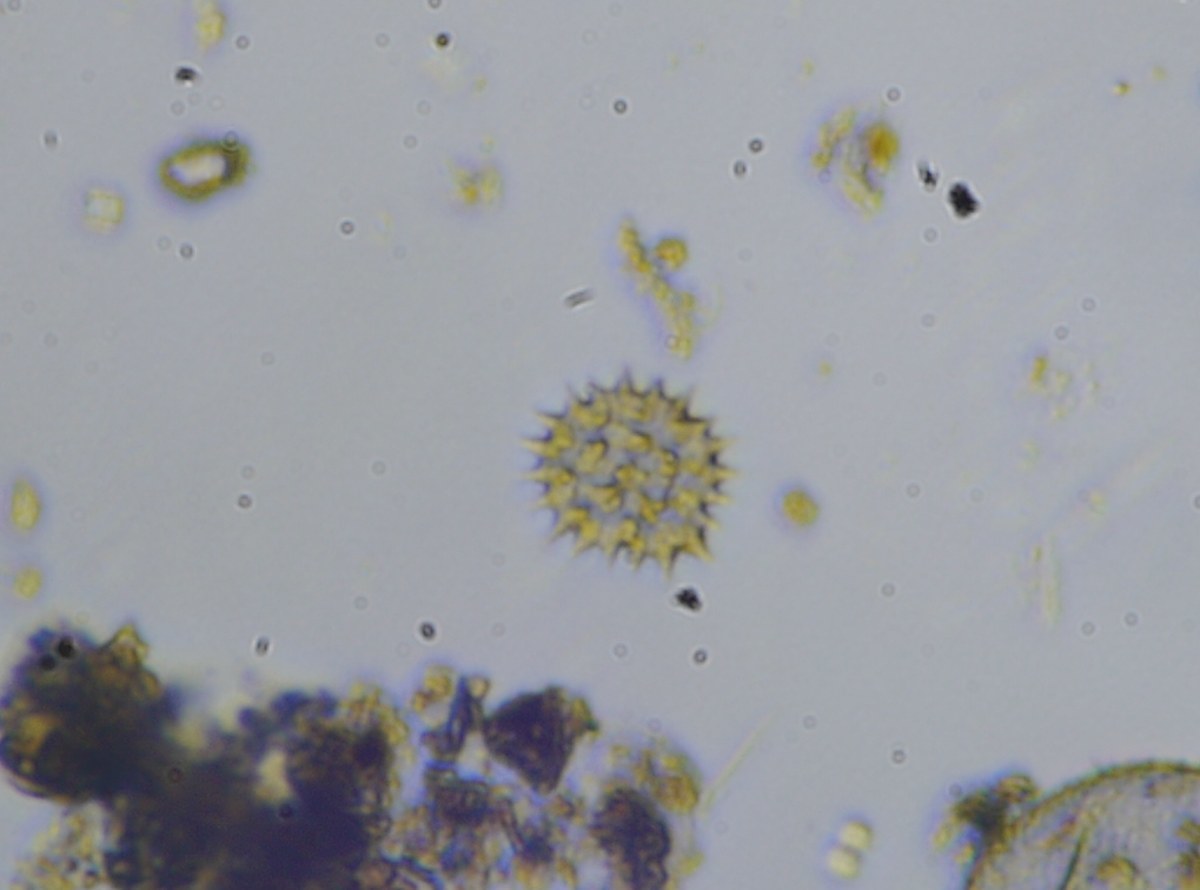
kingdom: Plantae
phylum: Chlorophyta
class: Chlorophyceae
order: Sphaeropleales
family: Hydrodictyaceae
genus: Pseudopediastrum
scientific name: Pseudopediastrum boryanum
